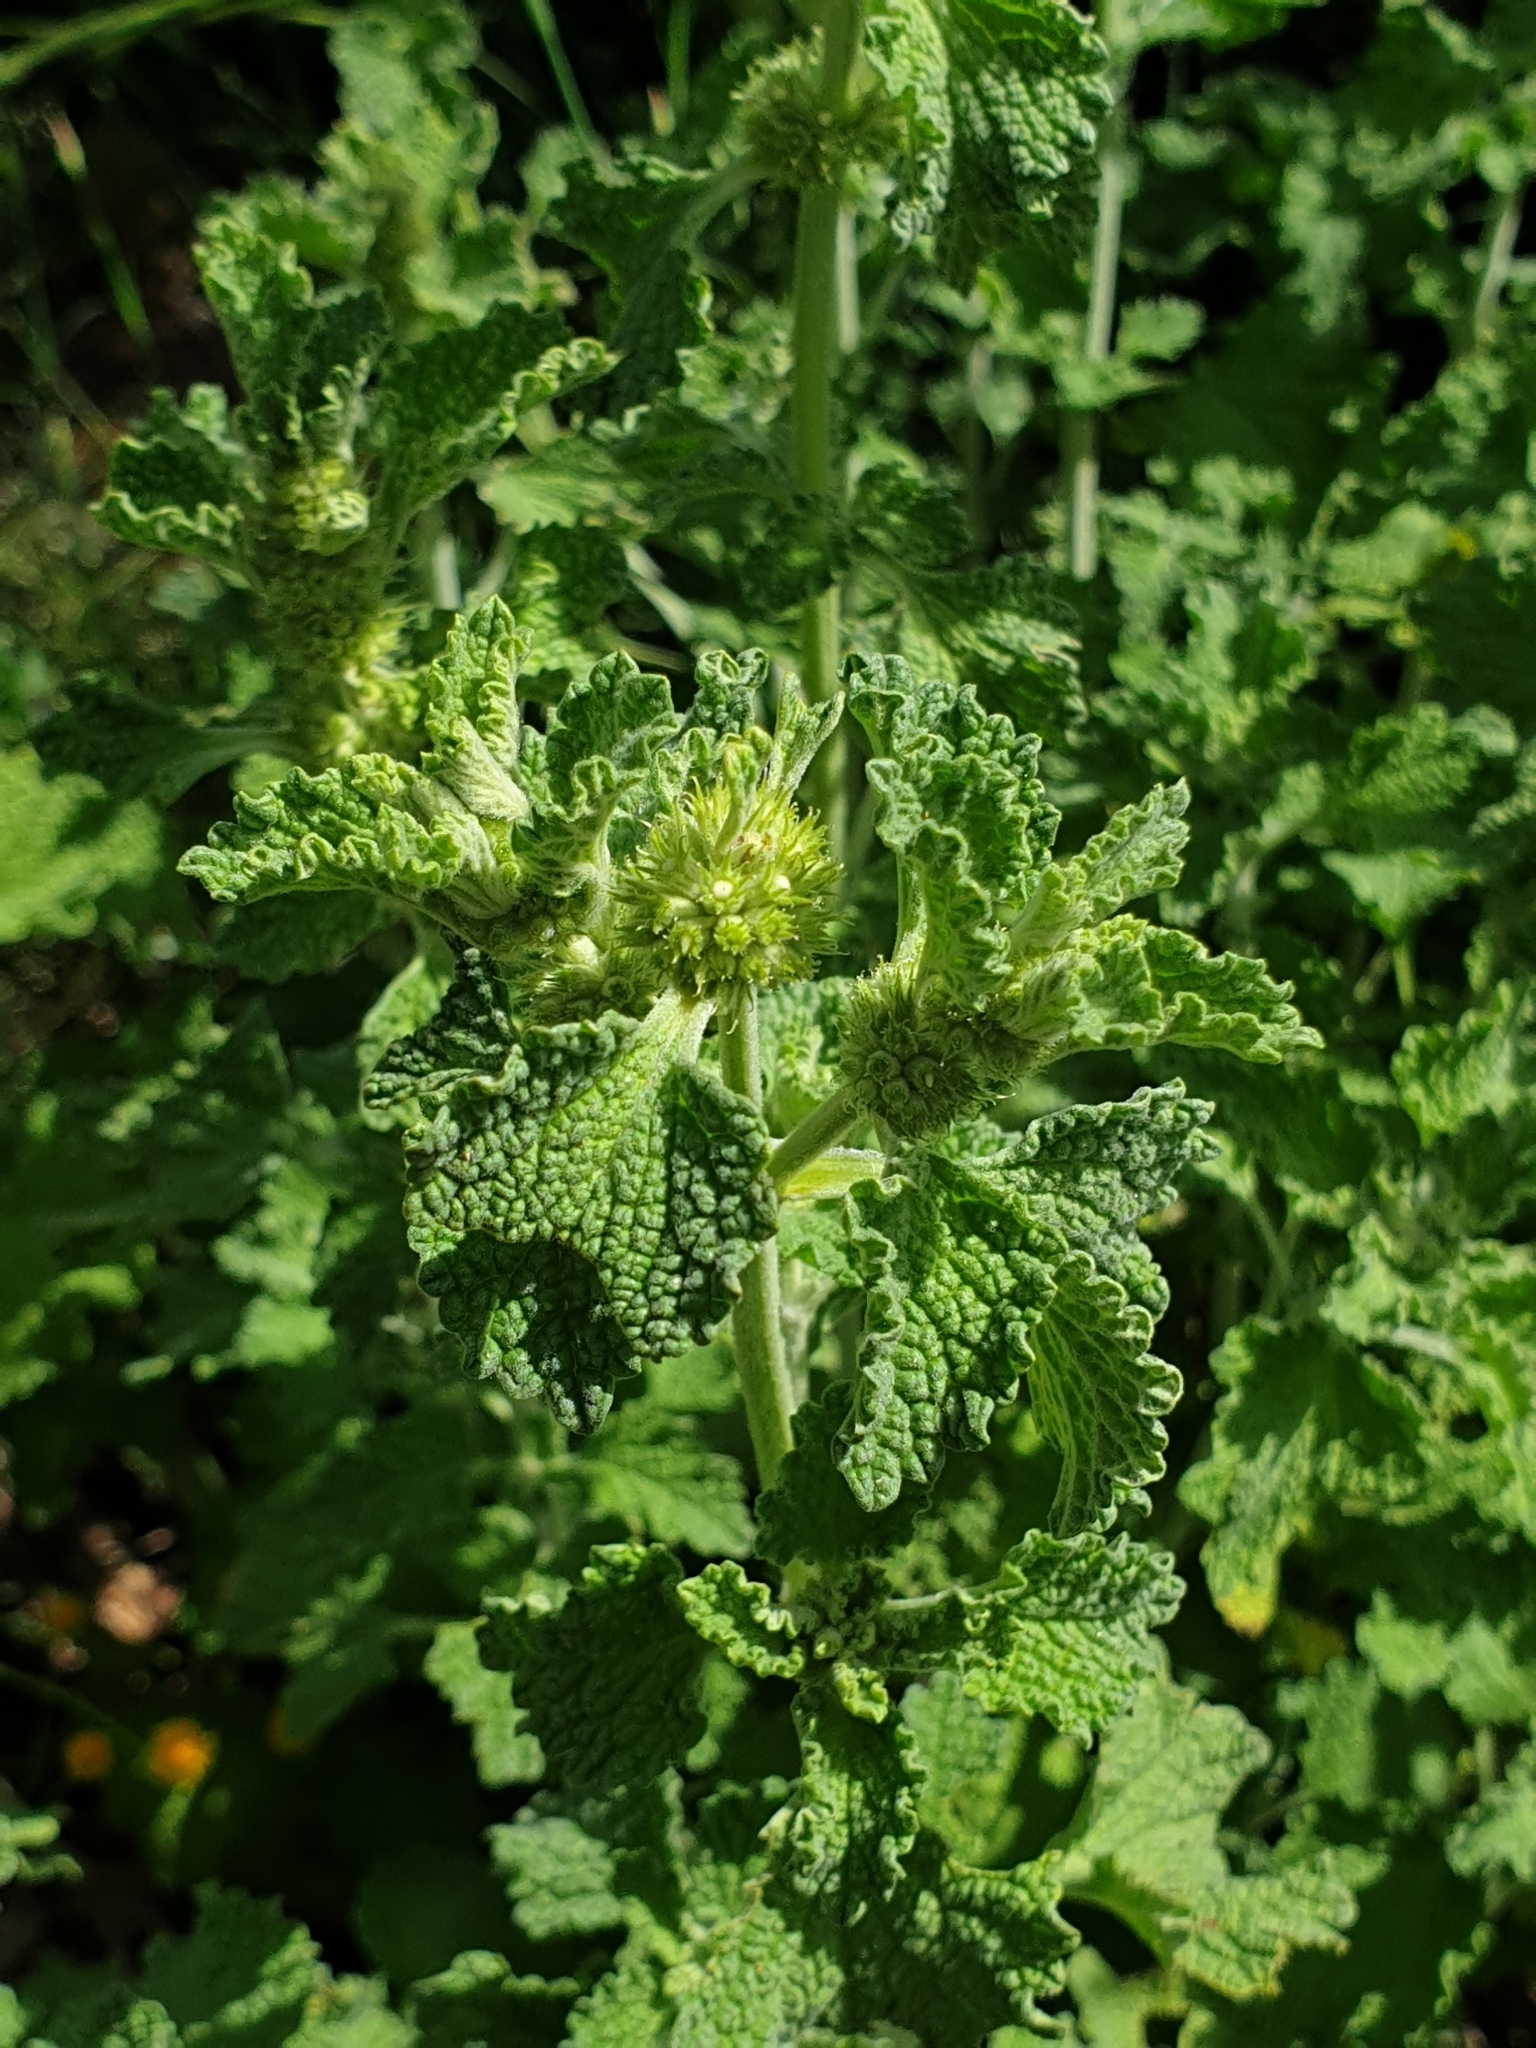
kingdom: Plantae
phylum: Tracheophyta
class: Magnoliopsida
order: Lamiales
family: Lamiaceae
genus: Marrubium
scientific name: Marrubium vulgare
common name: Horehound
